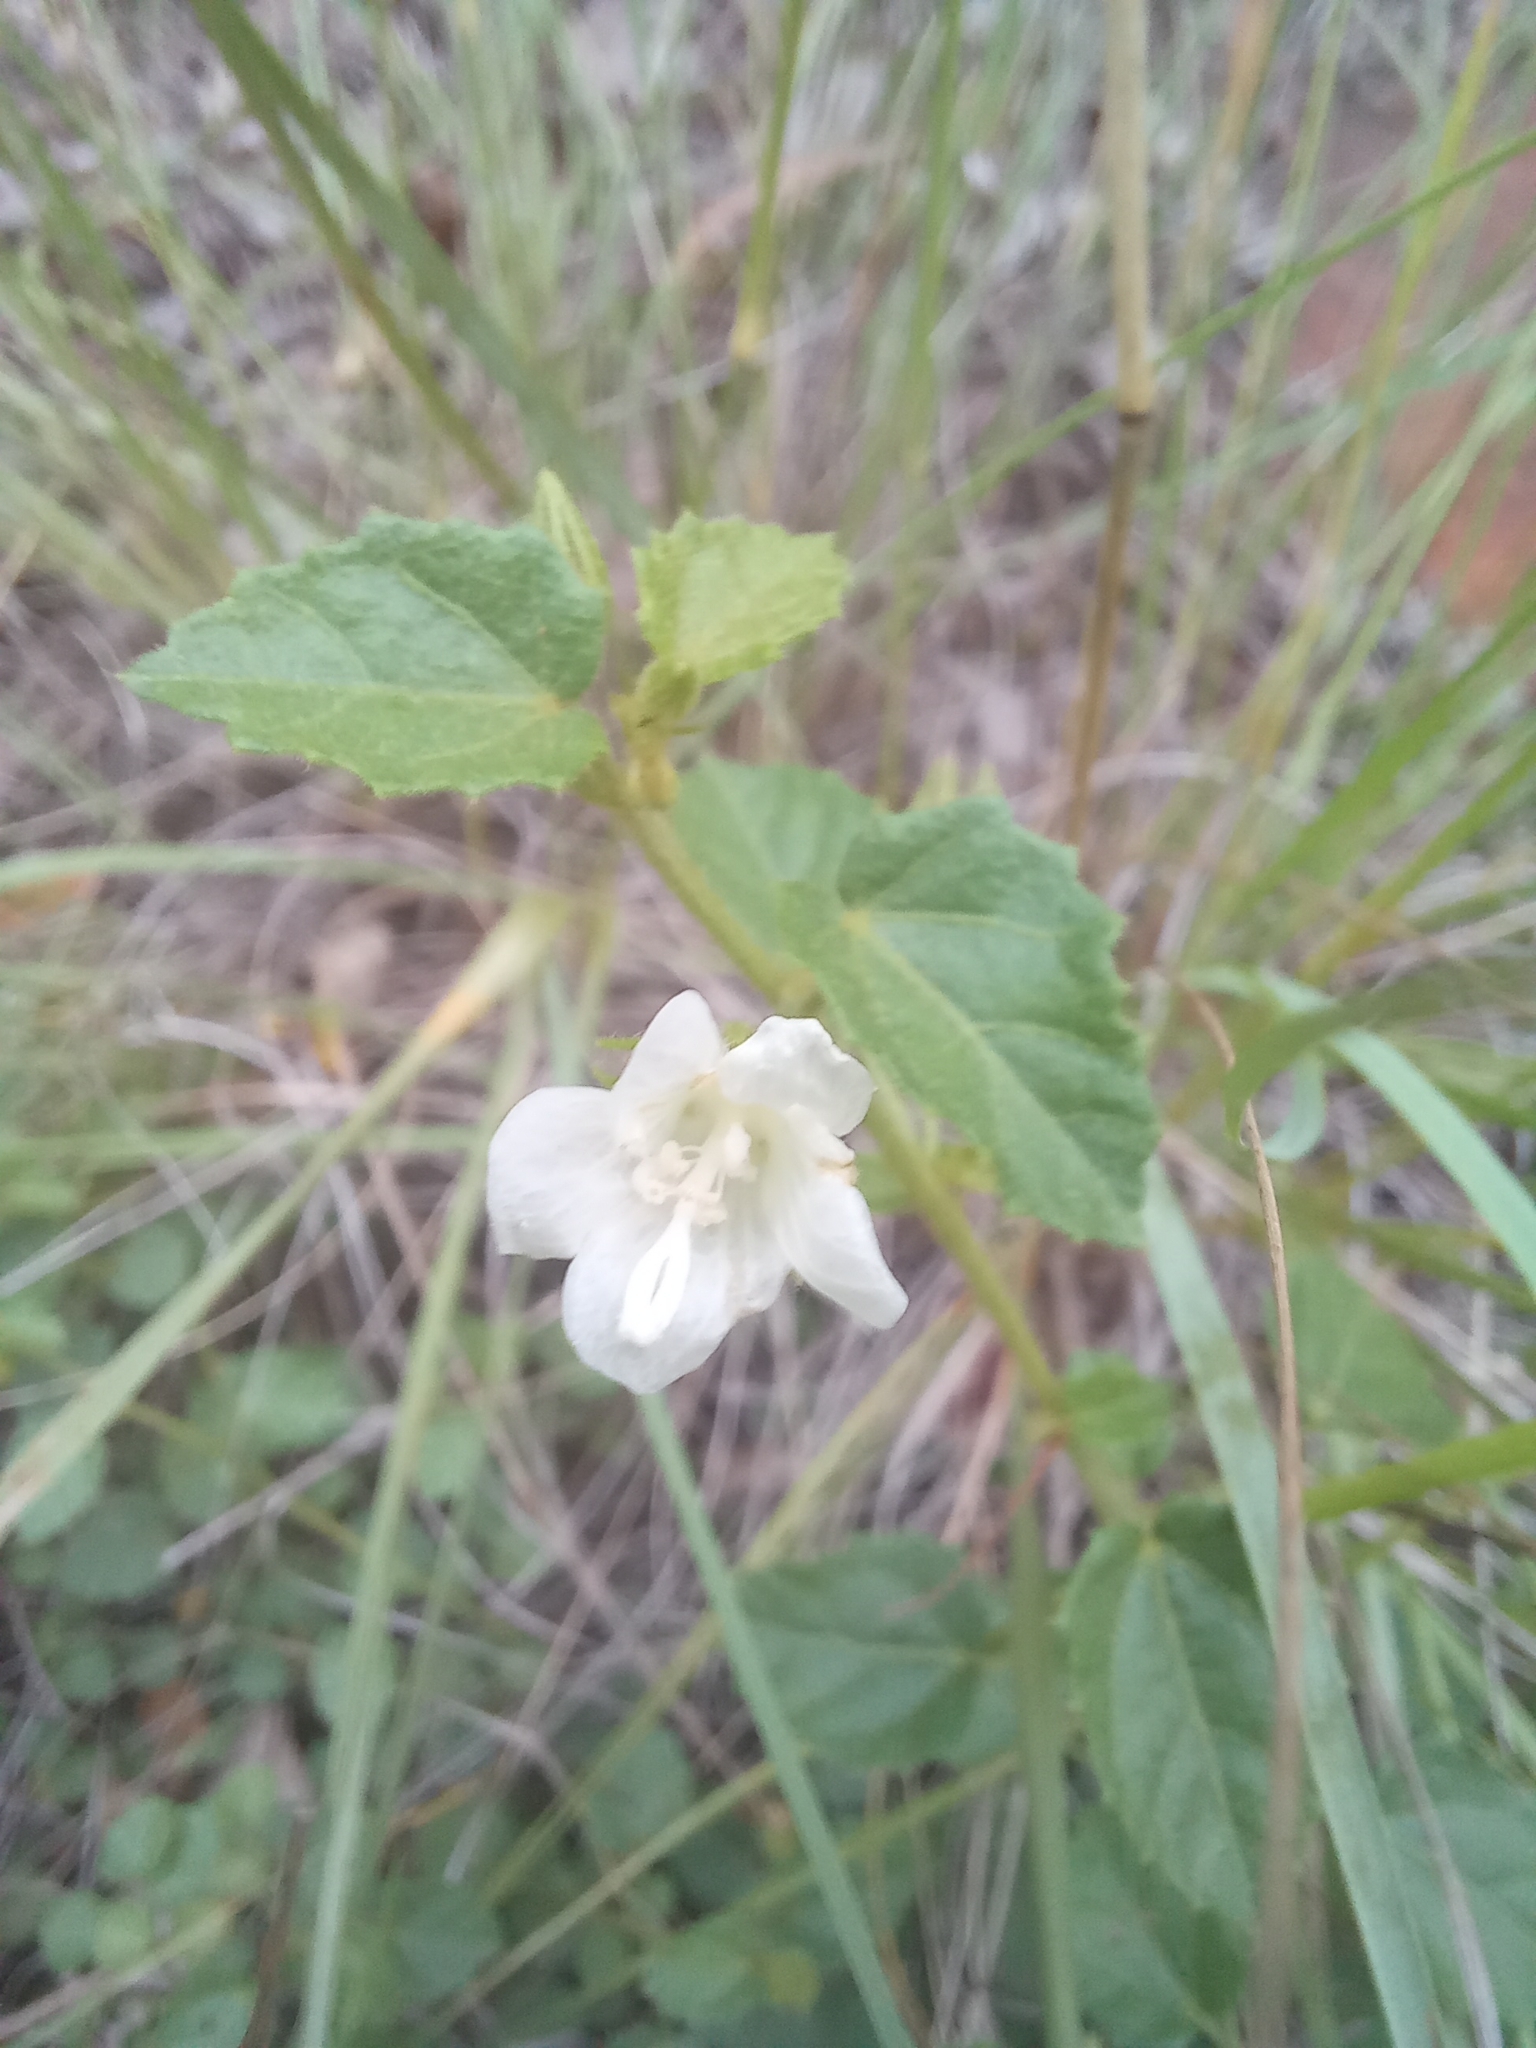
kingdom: Plantae
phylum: Tracheophyta
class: Magnoliopsida
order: Malvales
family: Malvaceae
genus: Pavonia
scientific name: Pavonia leptocalyx
